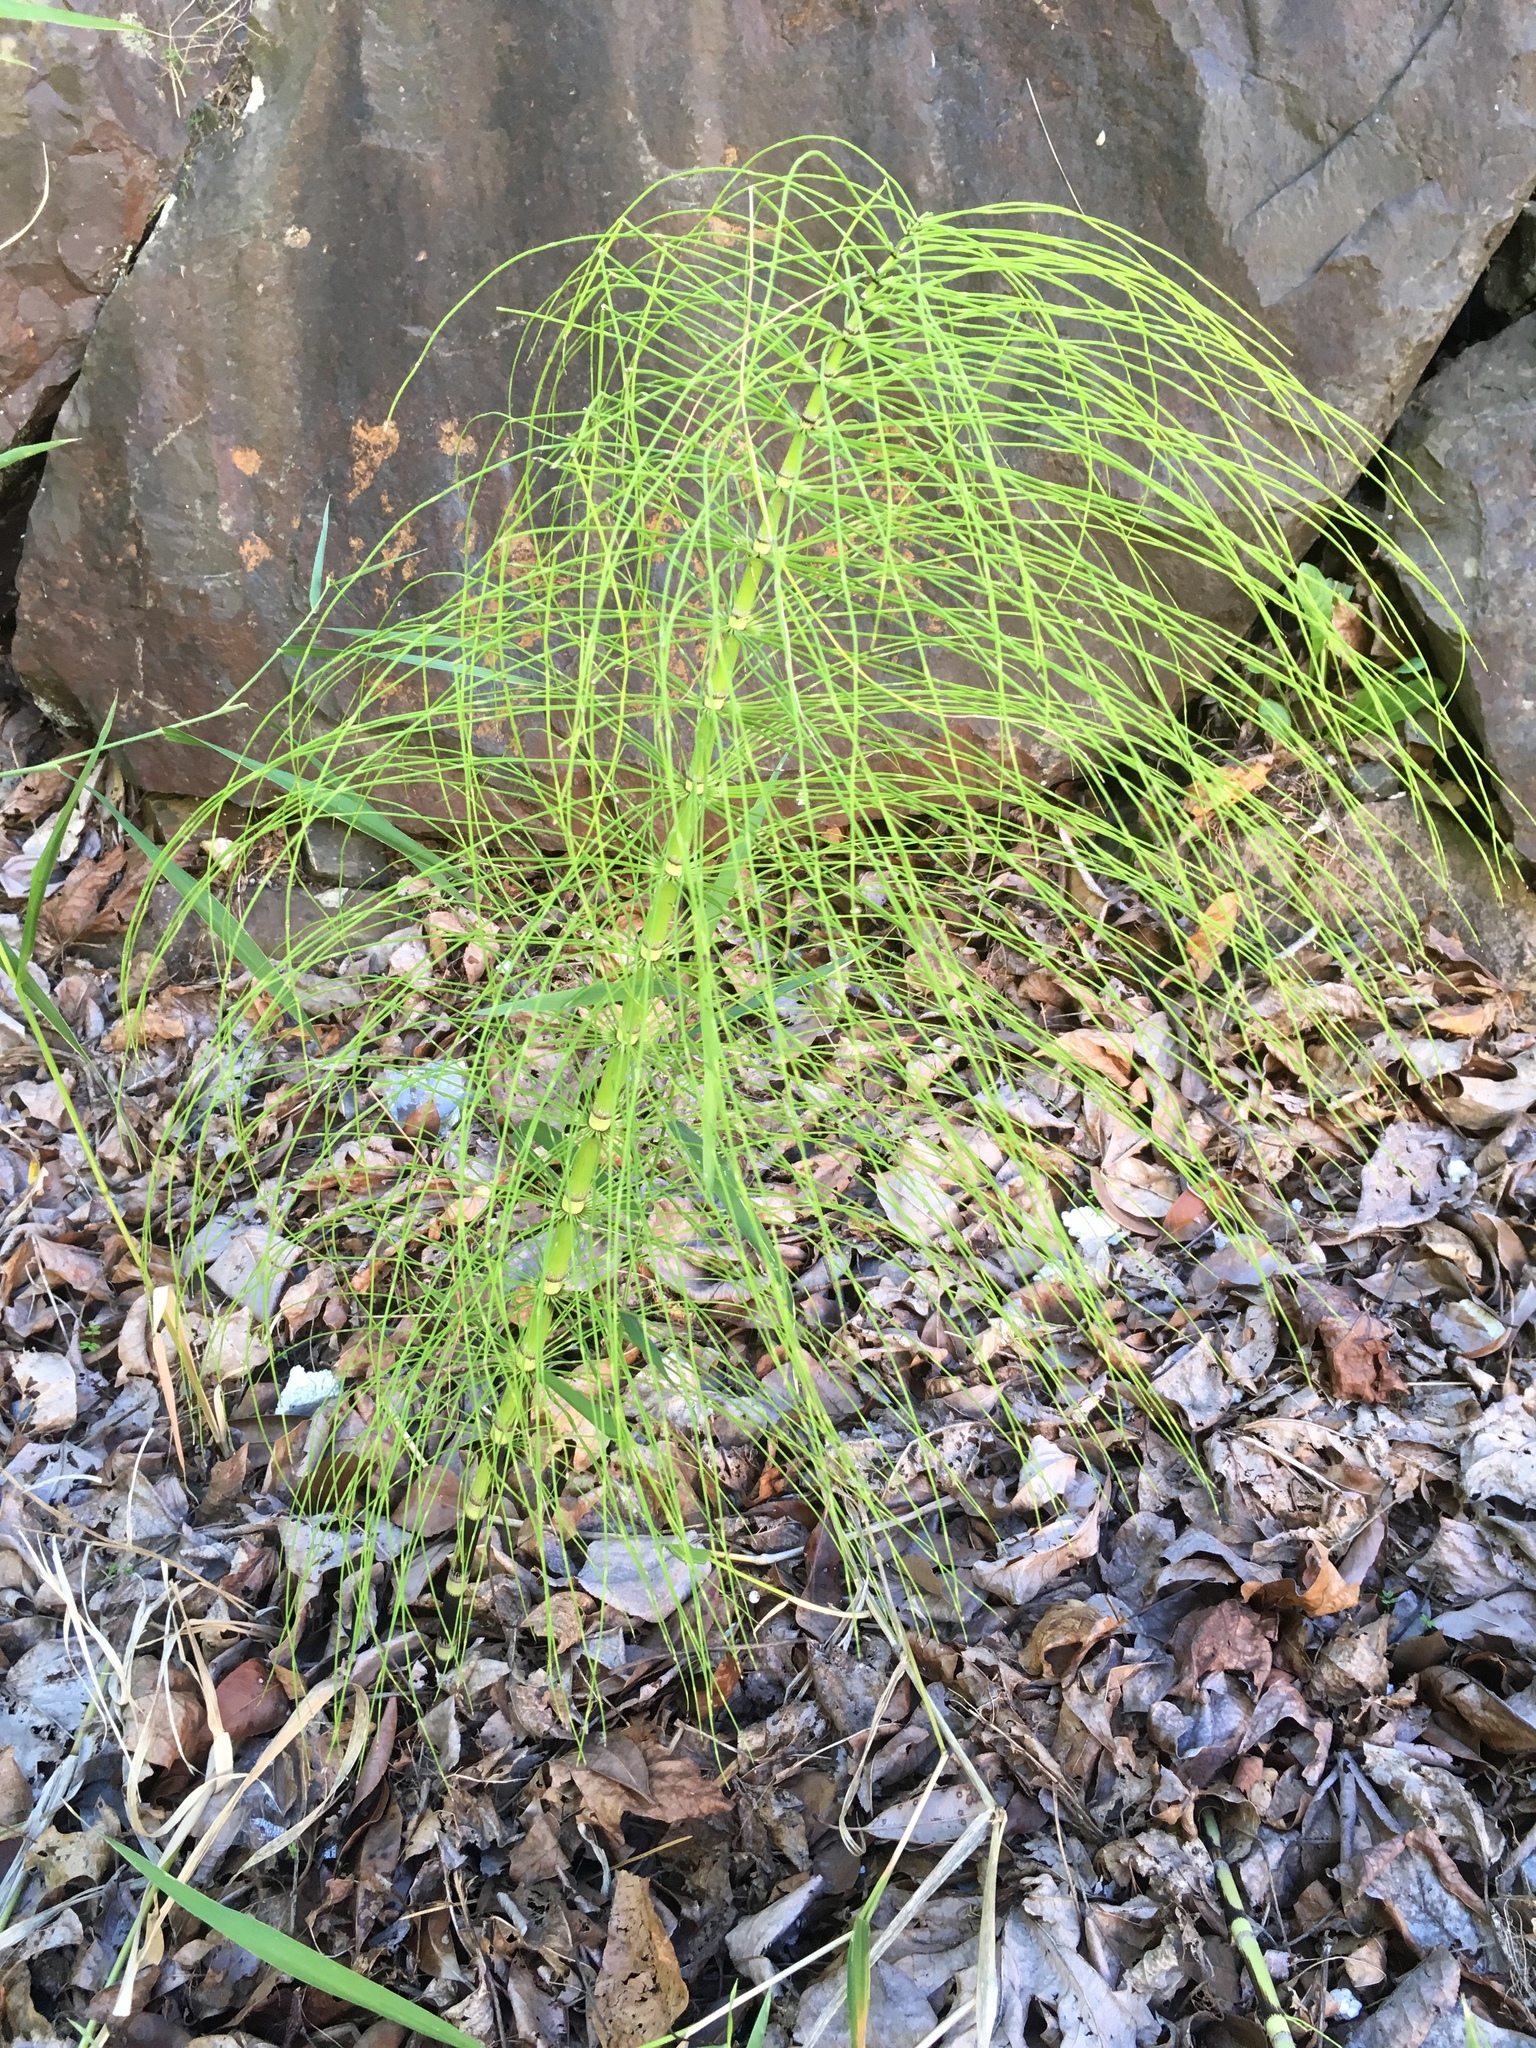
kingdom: Plantae
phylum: Tracheophyta
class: Polypodiopsida
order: Equisetales
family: Equisetaceae
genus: Equisetum
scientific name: Equisetum braunii
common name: Braun's horsetail
